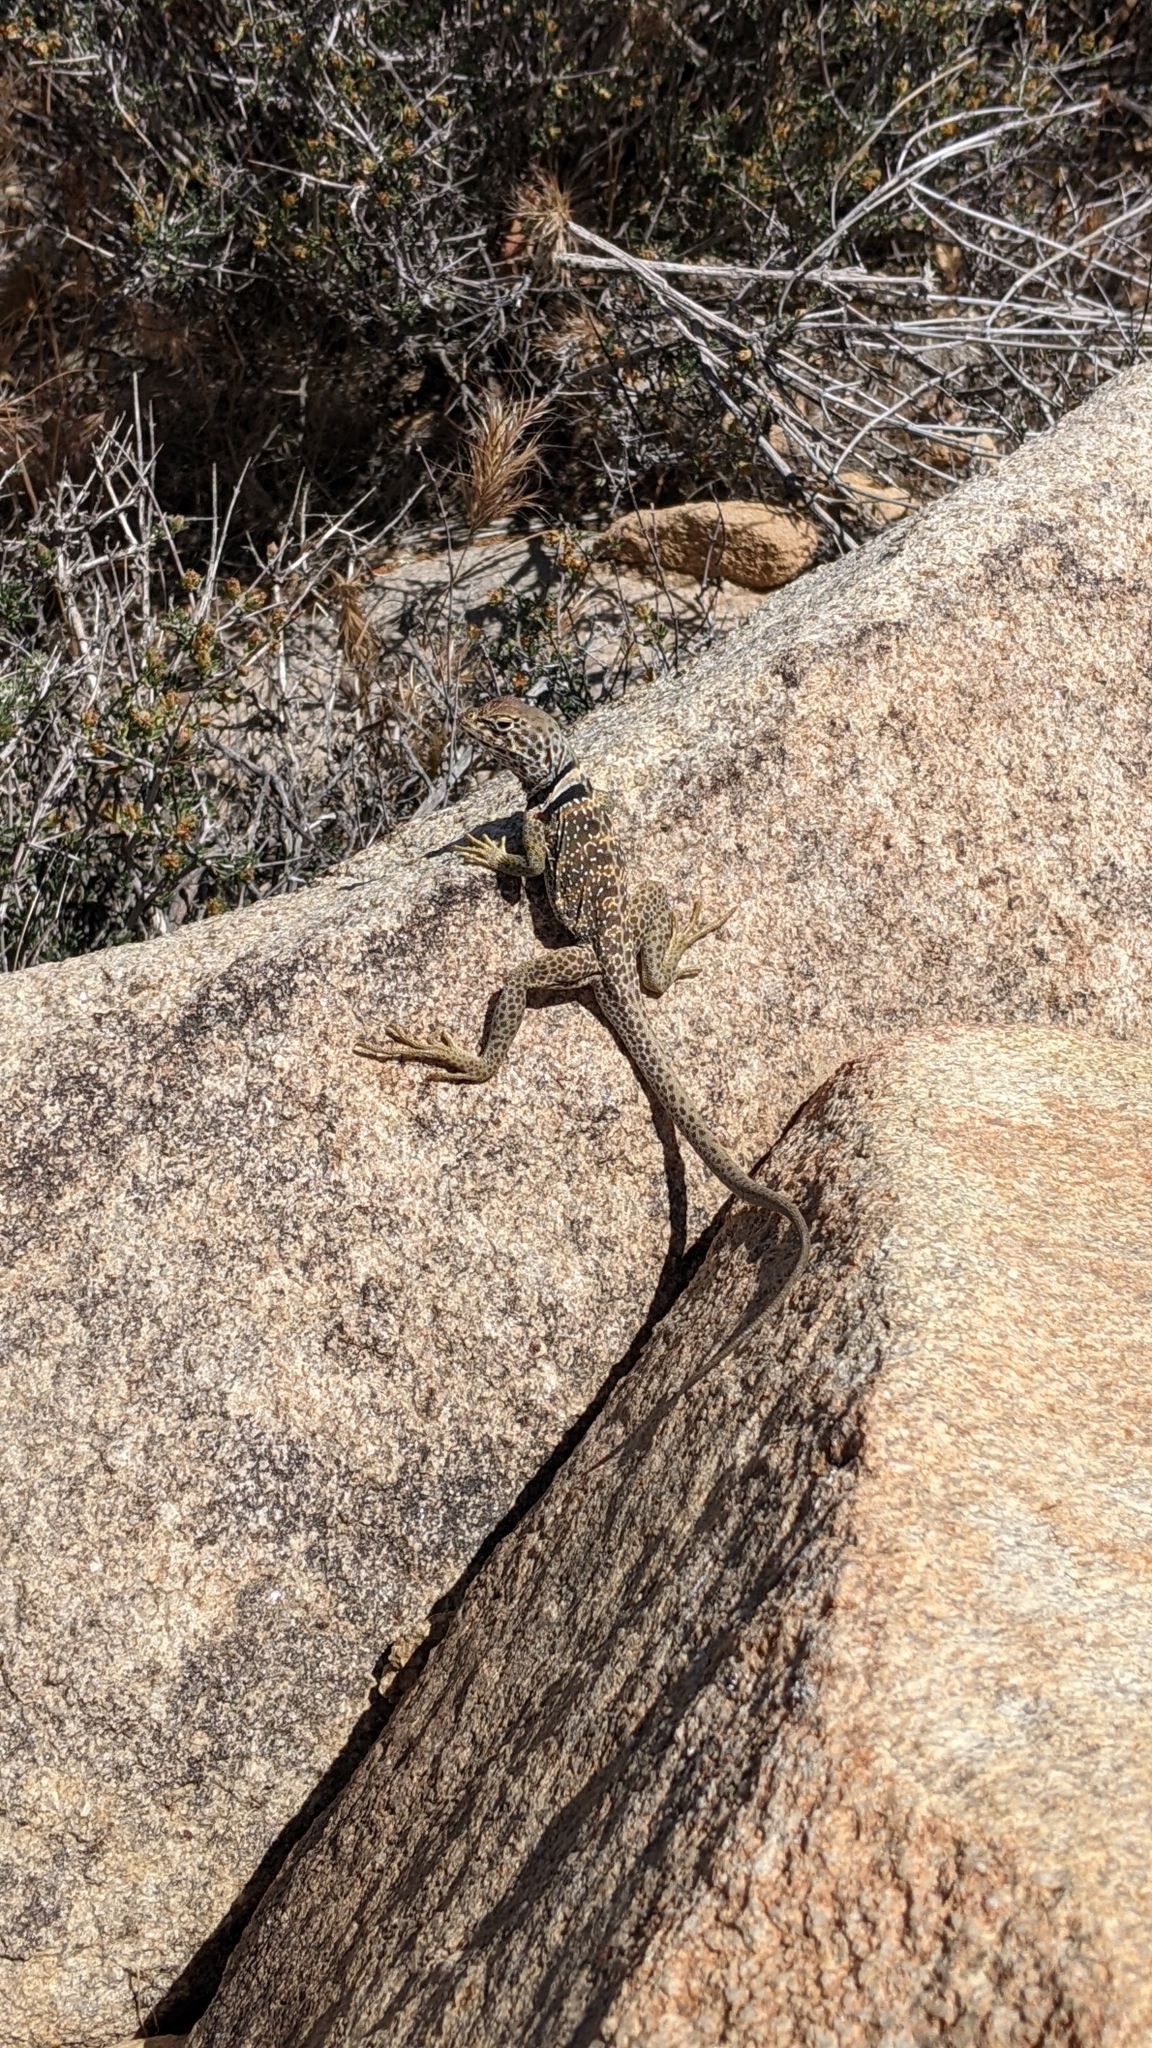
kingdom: Animalia
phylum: Chordata
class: Squamata
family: Crotaphytidae
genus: Crotaphytus
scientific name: Crotaphytus bicinctores
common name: Mojave black-collared lizard
